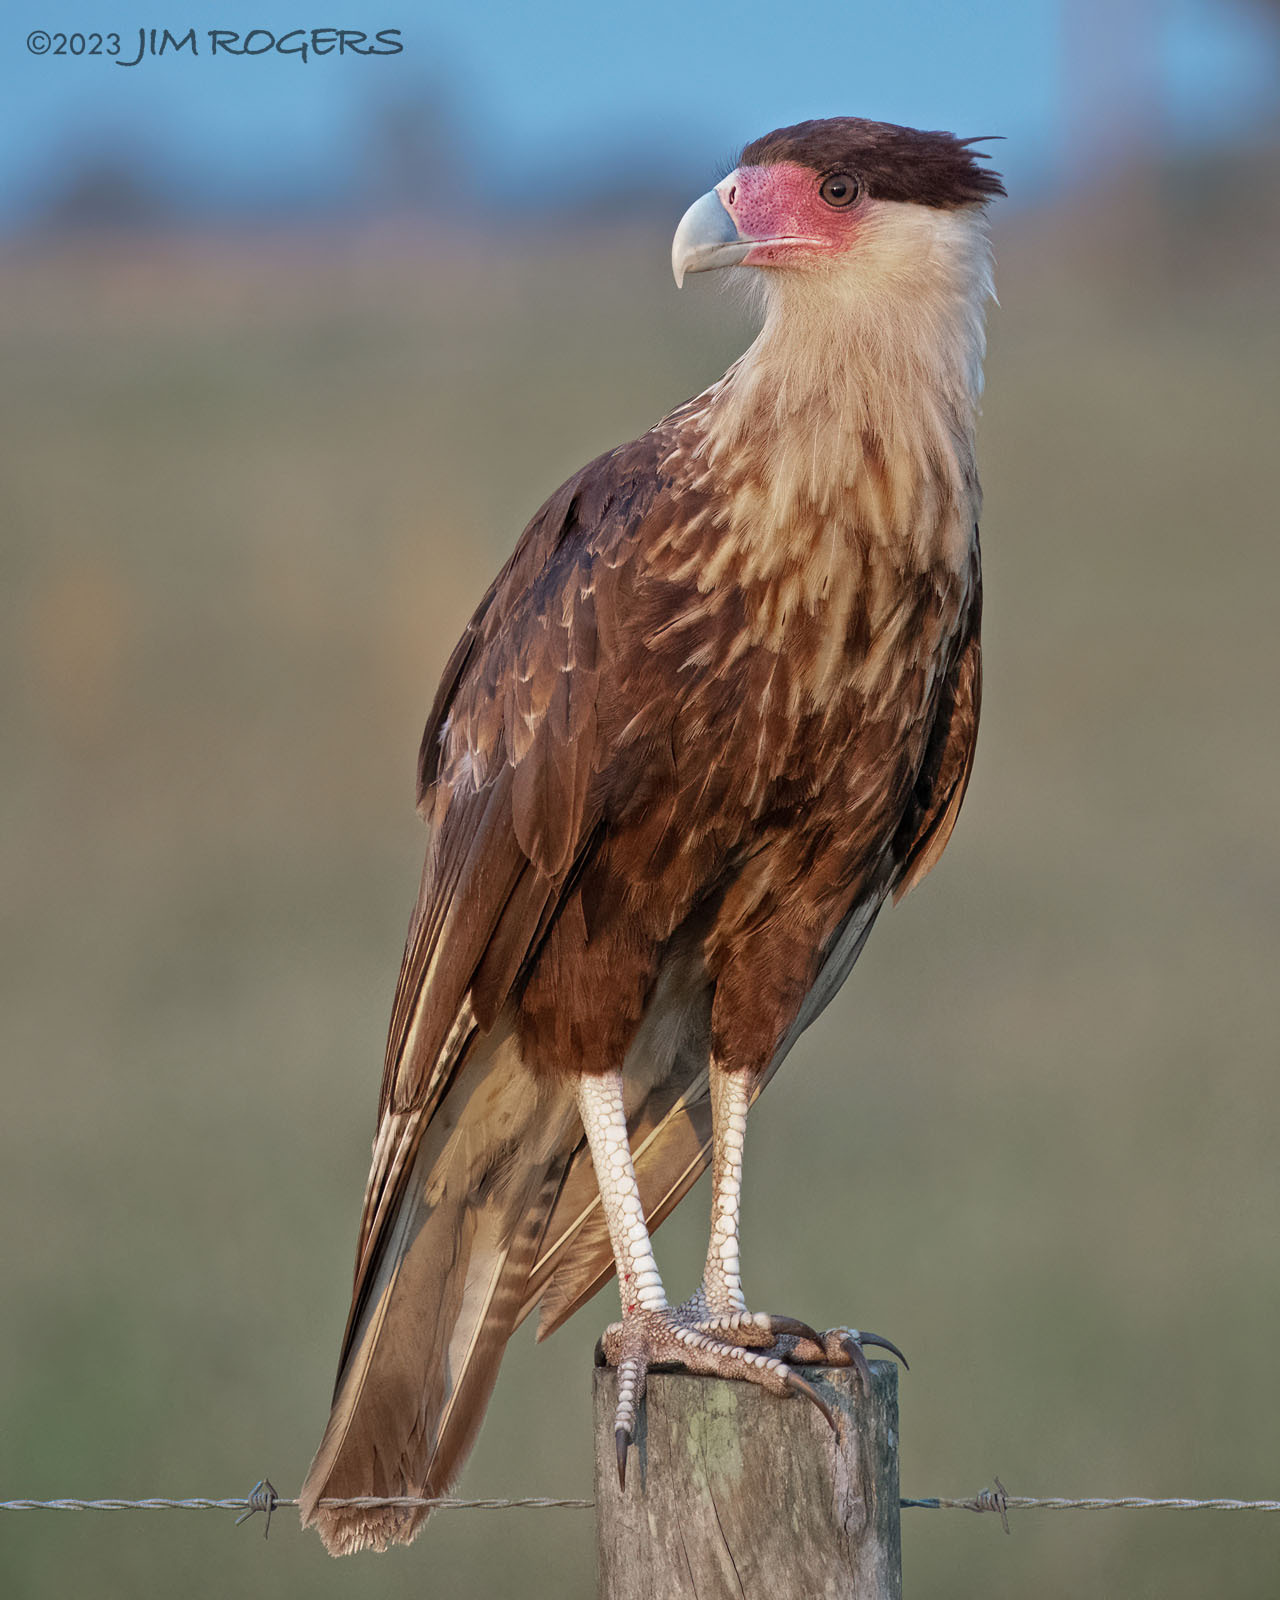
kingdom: Animalia
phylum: Chordata
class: Aves
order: Falconiformes
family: Falconidae
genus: Caracara
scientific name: Caracara plancus
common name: Southern caracara
